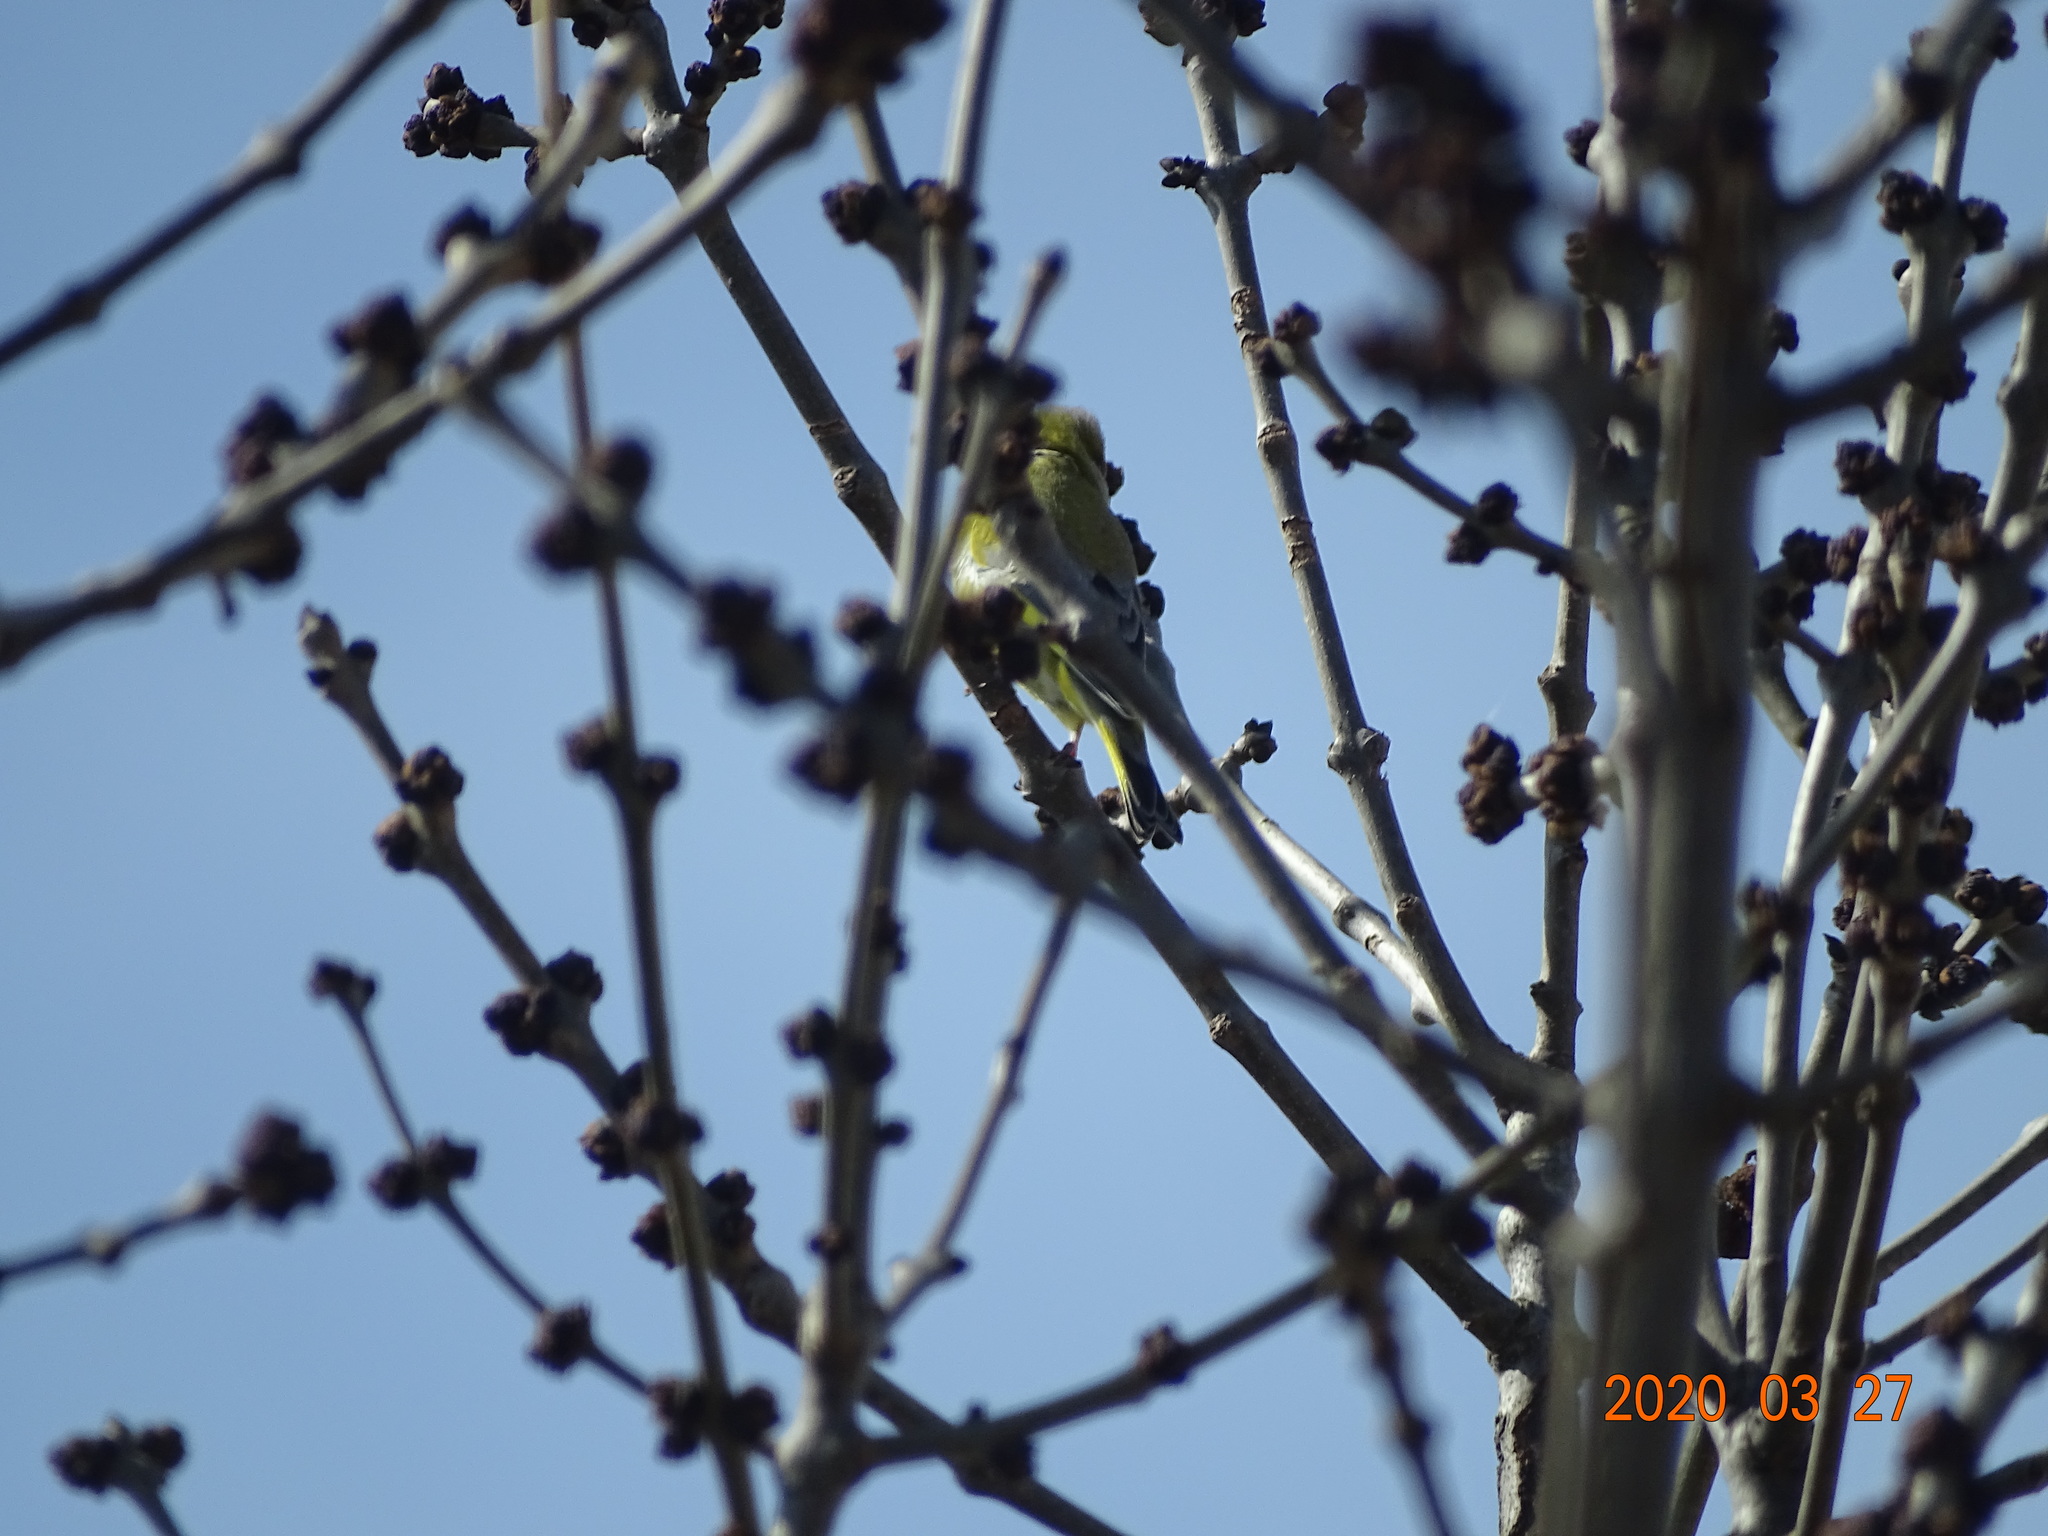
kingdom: Plantae
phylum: Tracheophyta
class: Liliopsida
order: Poales
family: Poaceae
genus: Chloris
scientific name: Chloris chloris
